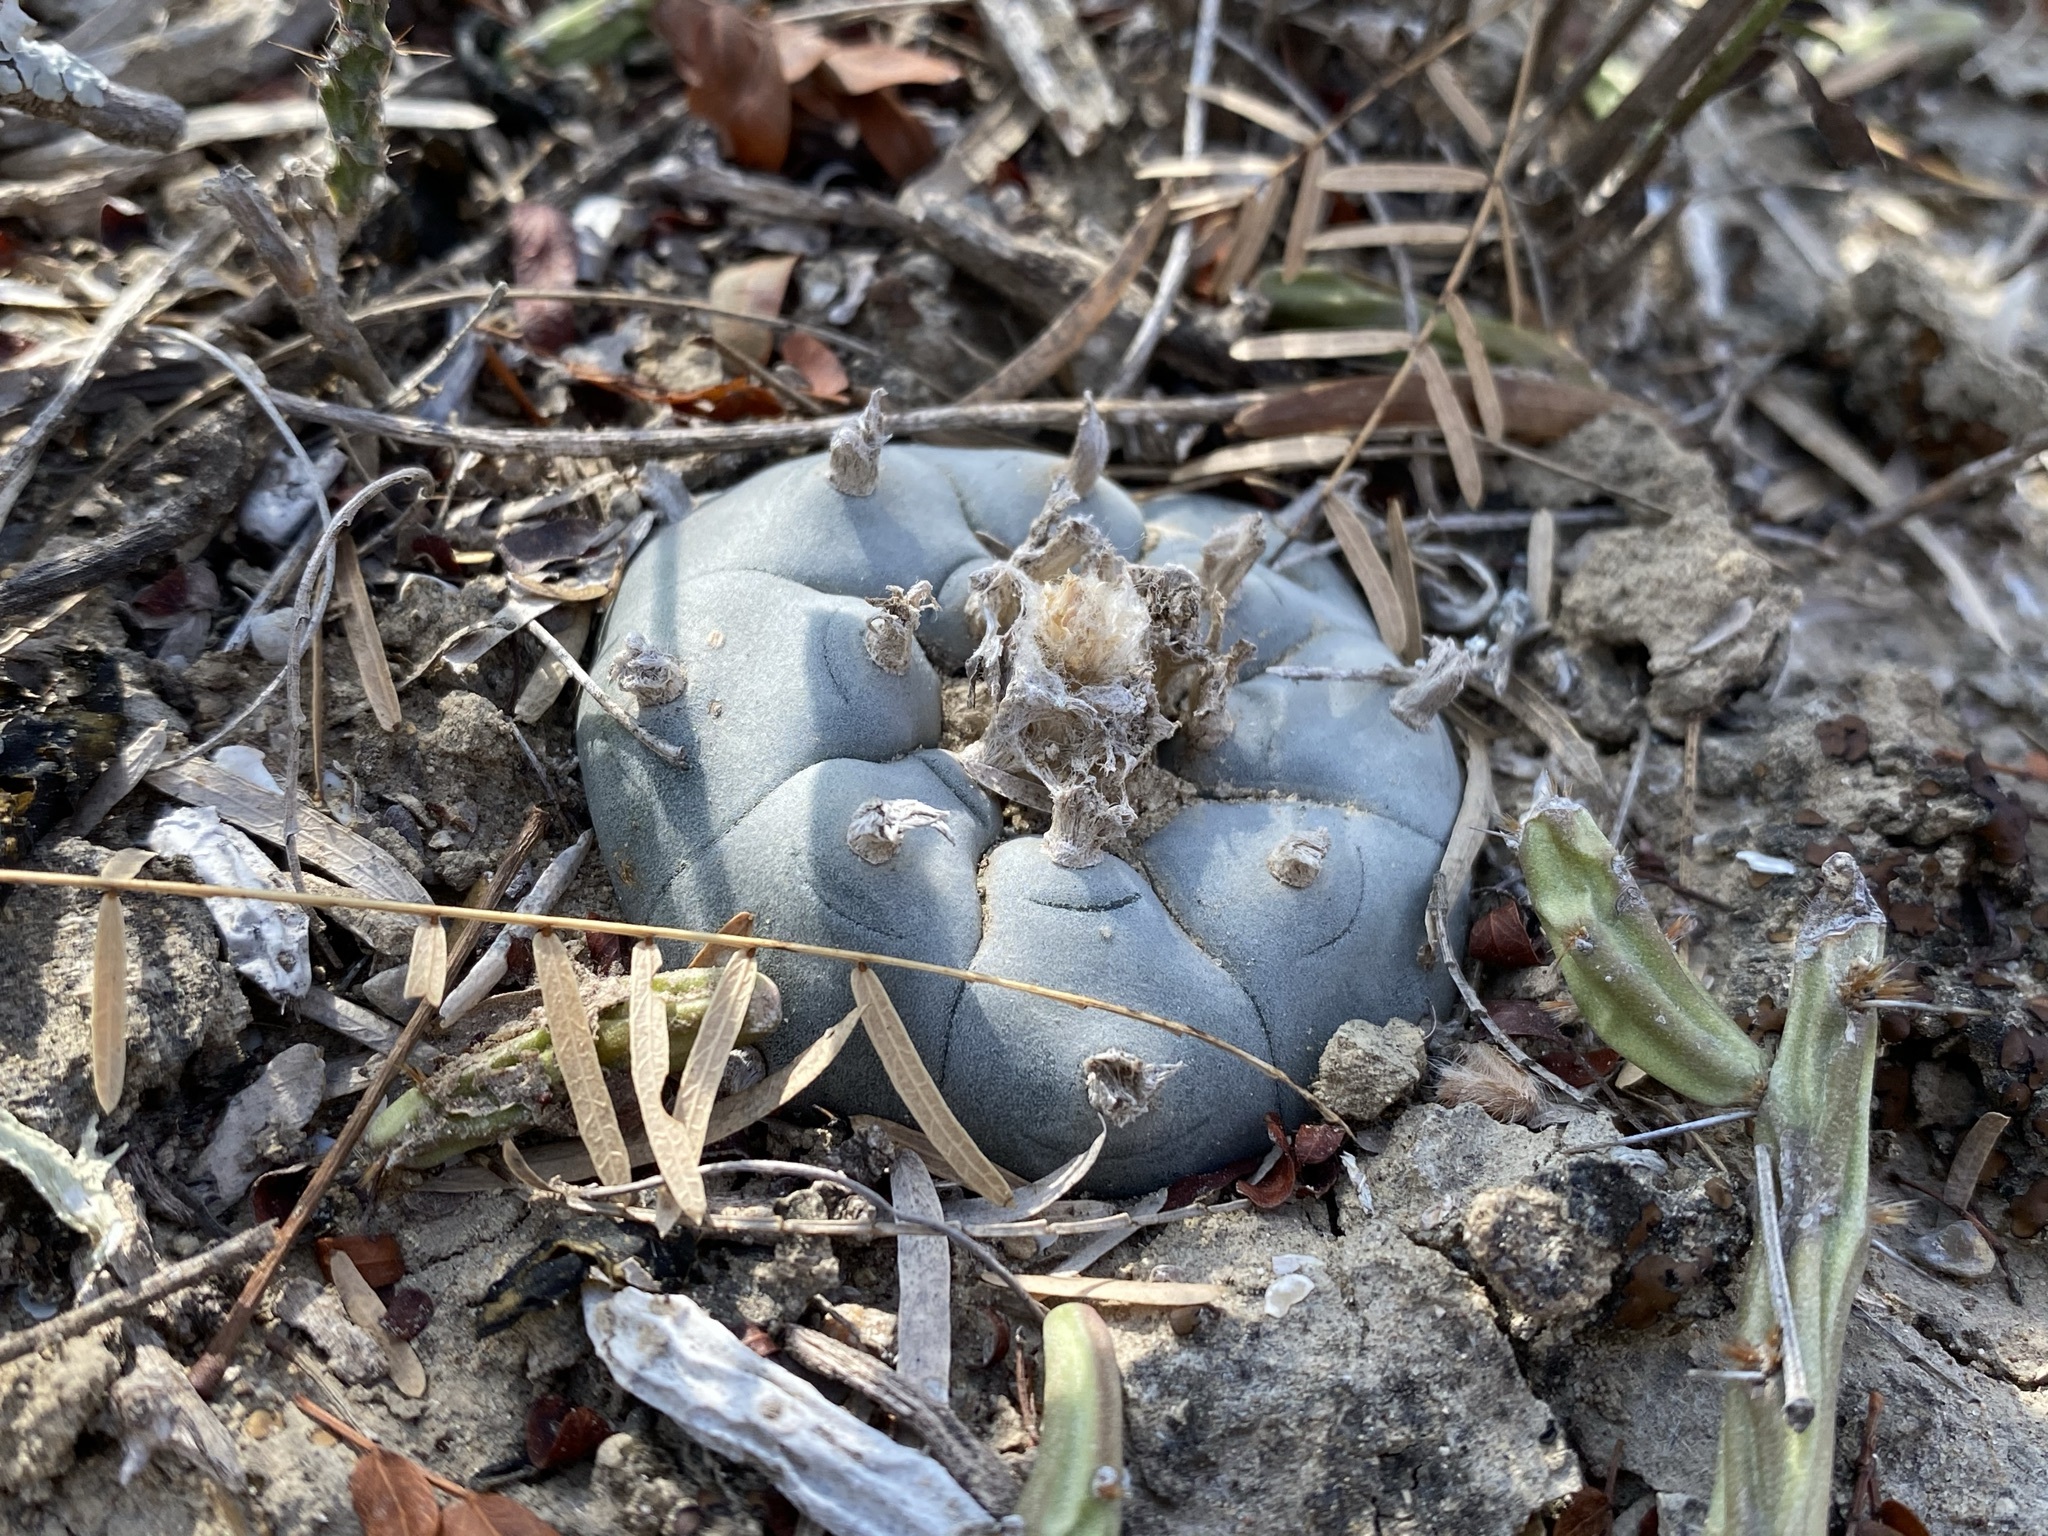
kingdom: Plantae
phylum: Tracheophyta
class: Magnoliopsida
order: Caryophyllales
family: Cactaceae
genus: Lophophora
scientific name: Lophophora williamsii
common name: Indian-dope
